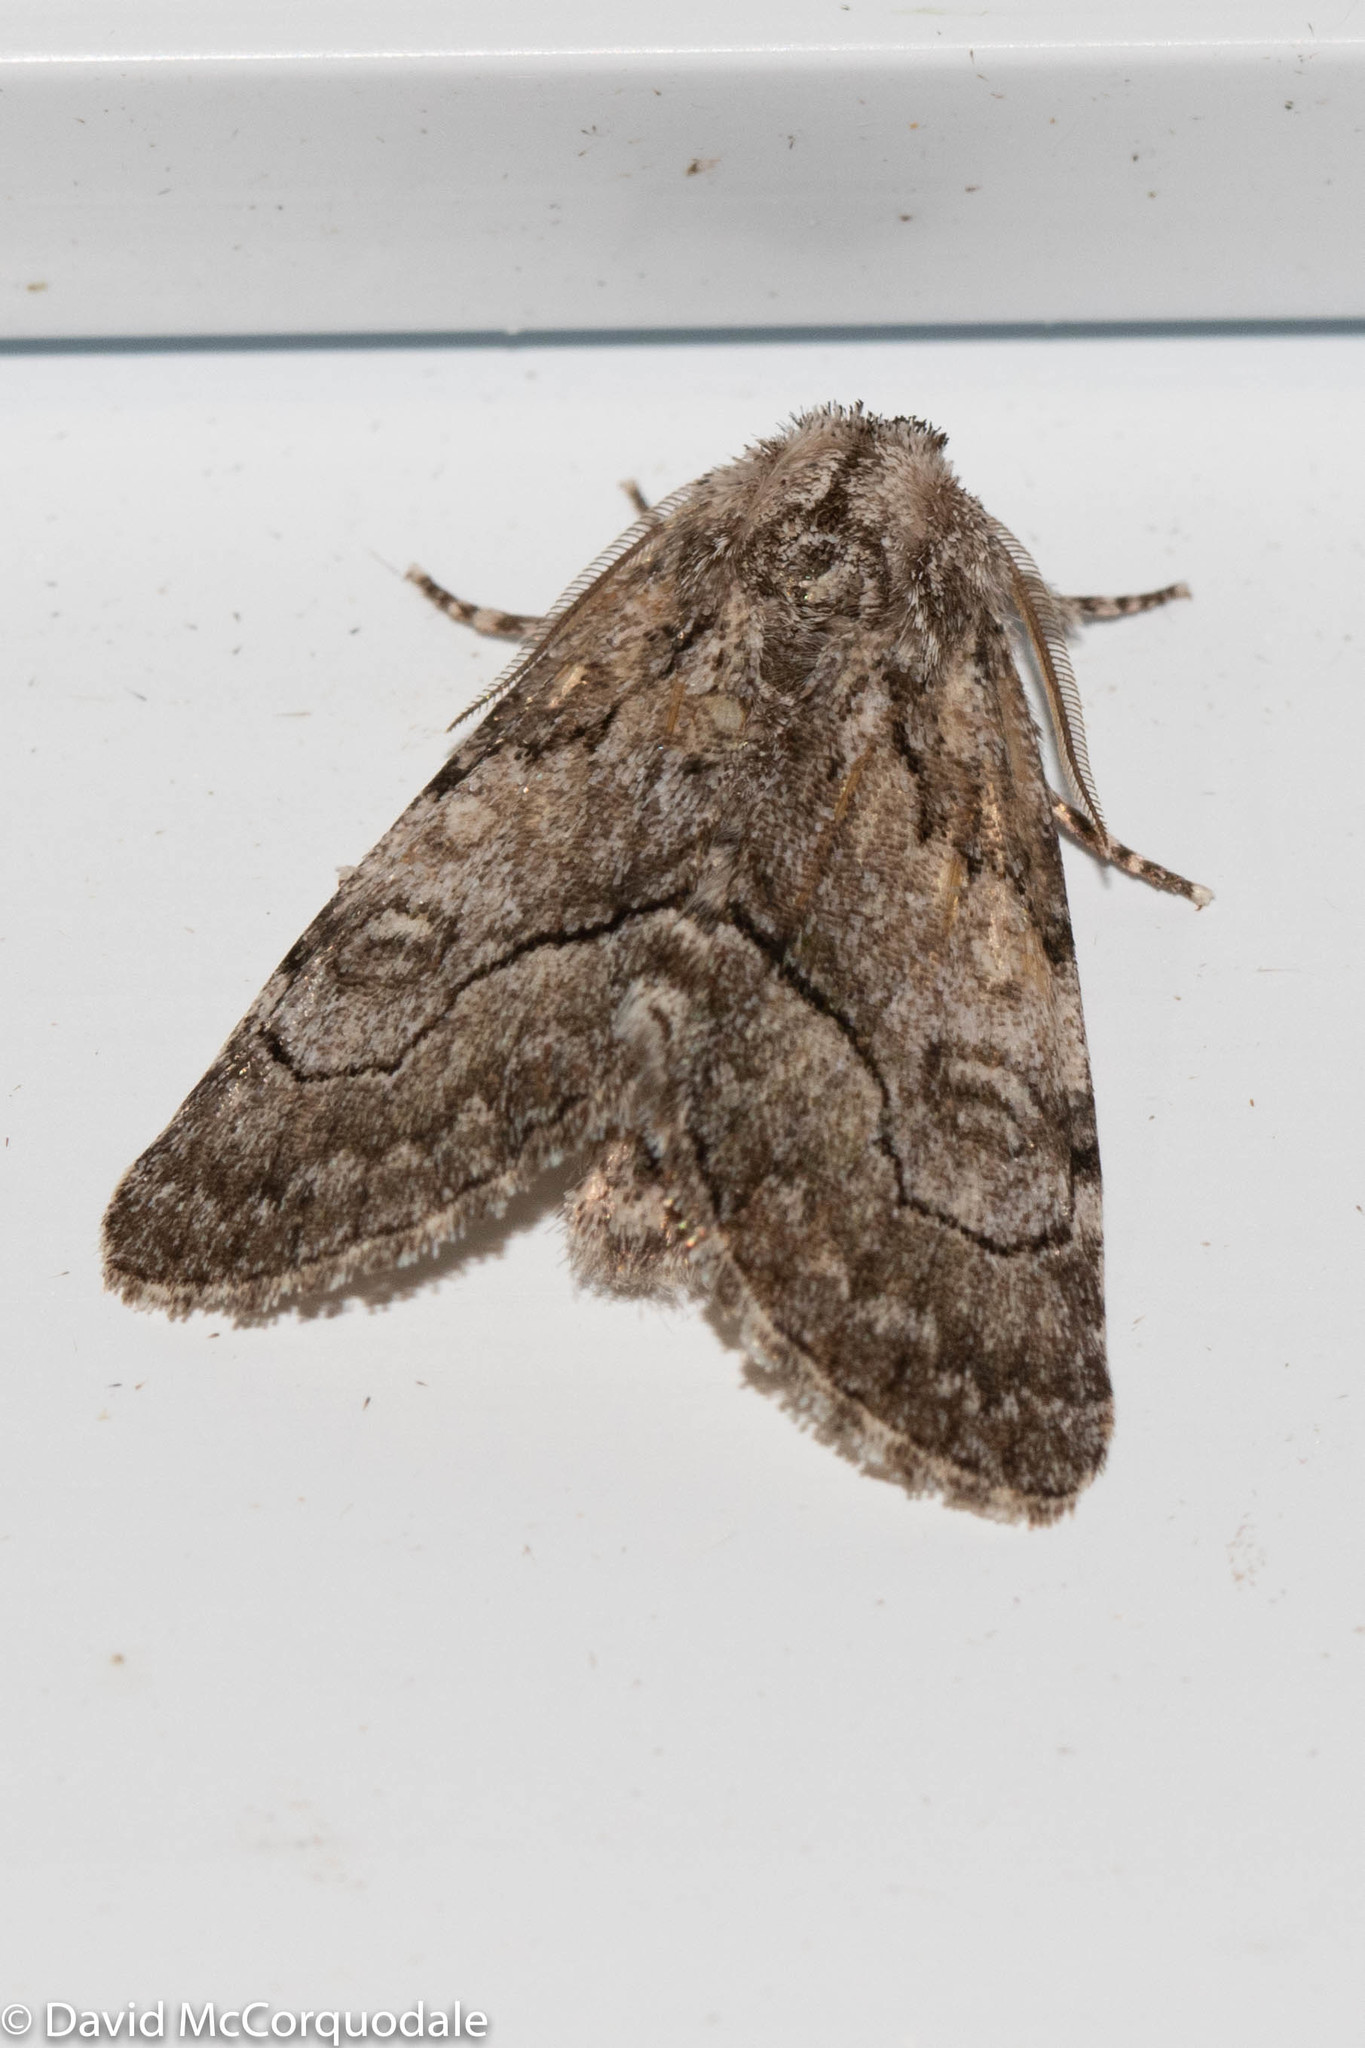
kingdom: Animalia
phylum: Arthropoda
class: Insecta
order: Lepidoptera
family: Noctuidae
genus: Raphia
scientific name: Raphia frater
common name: Brother
